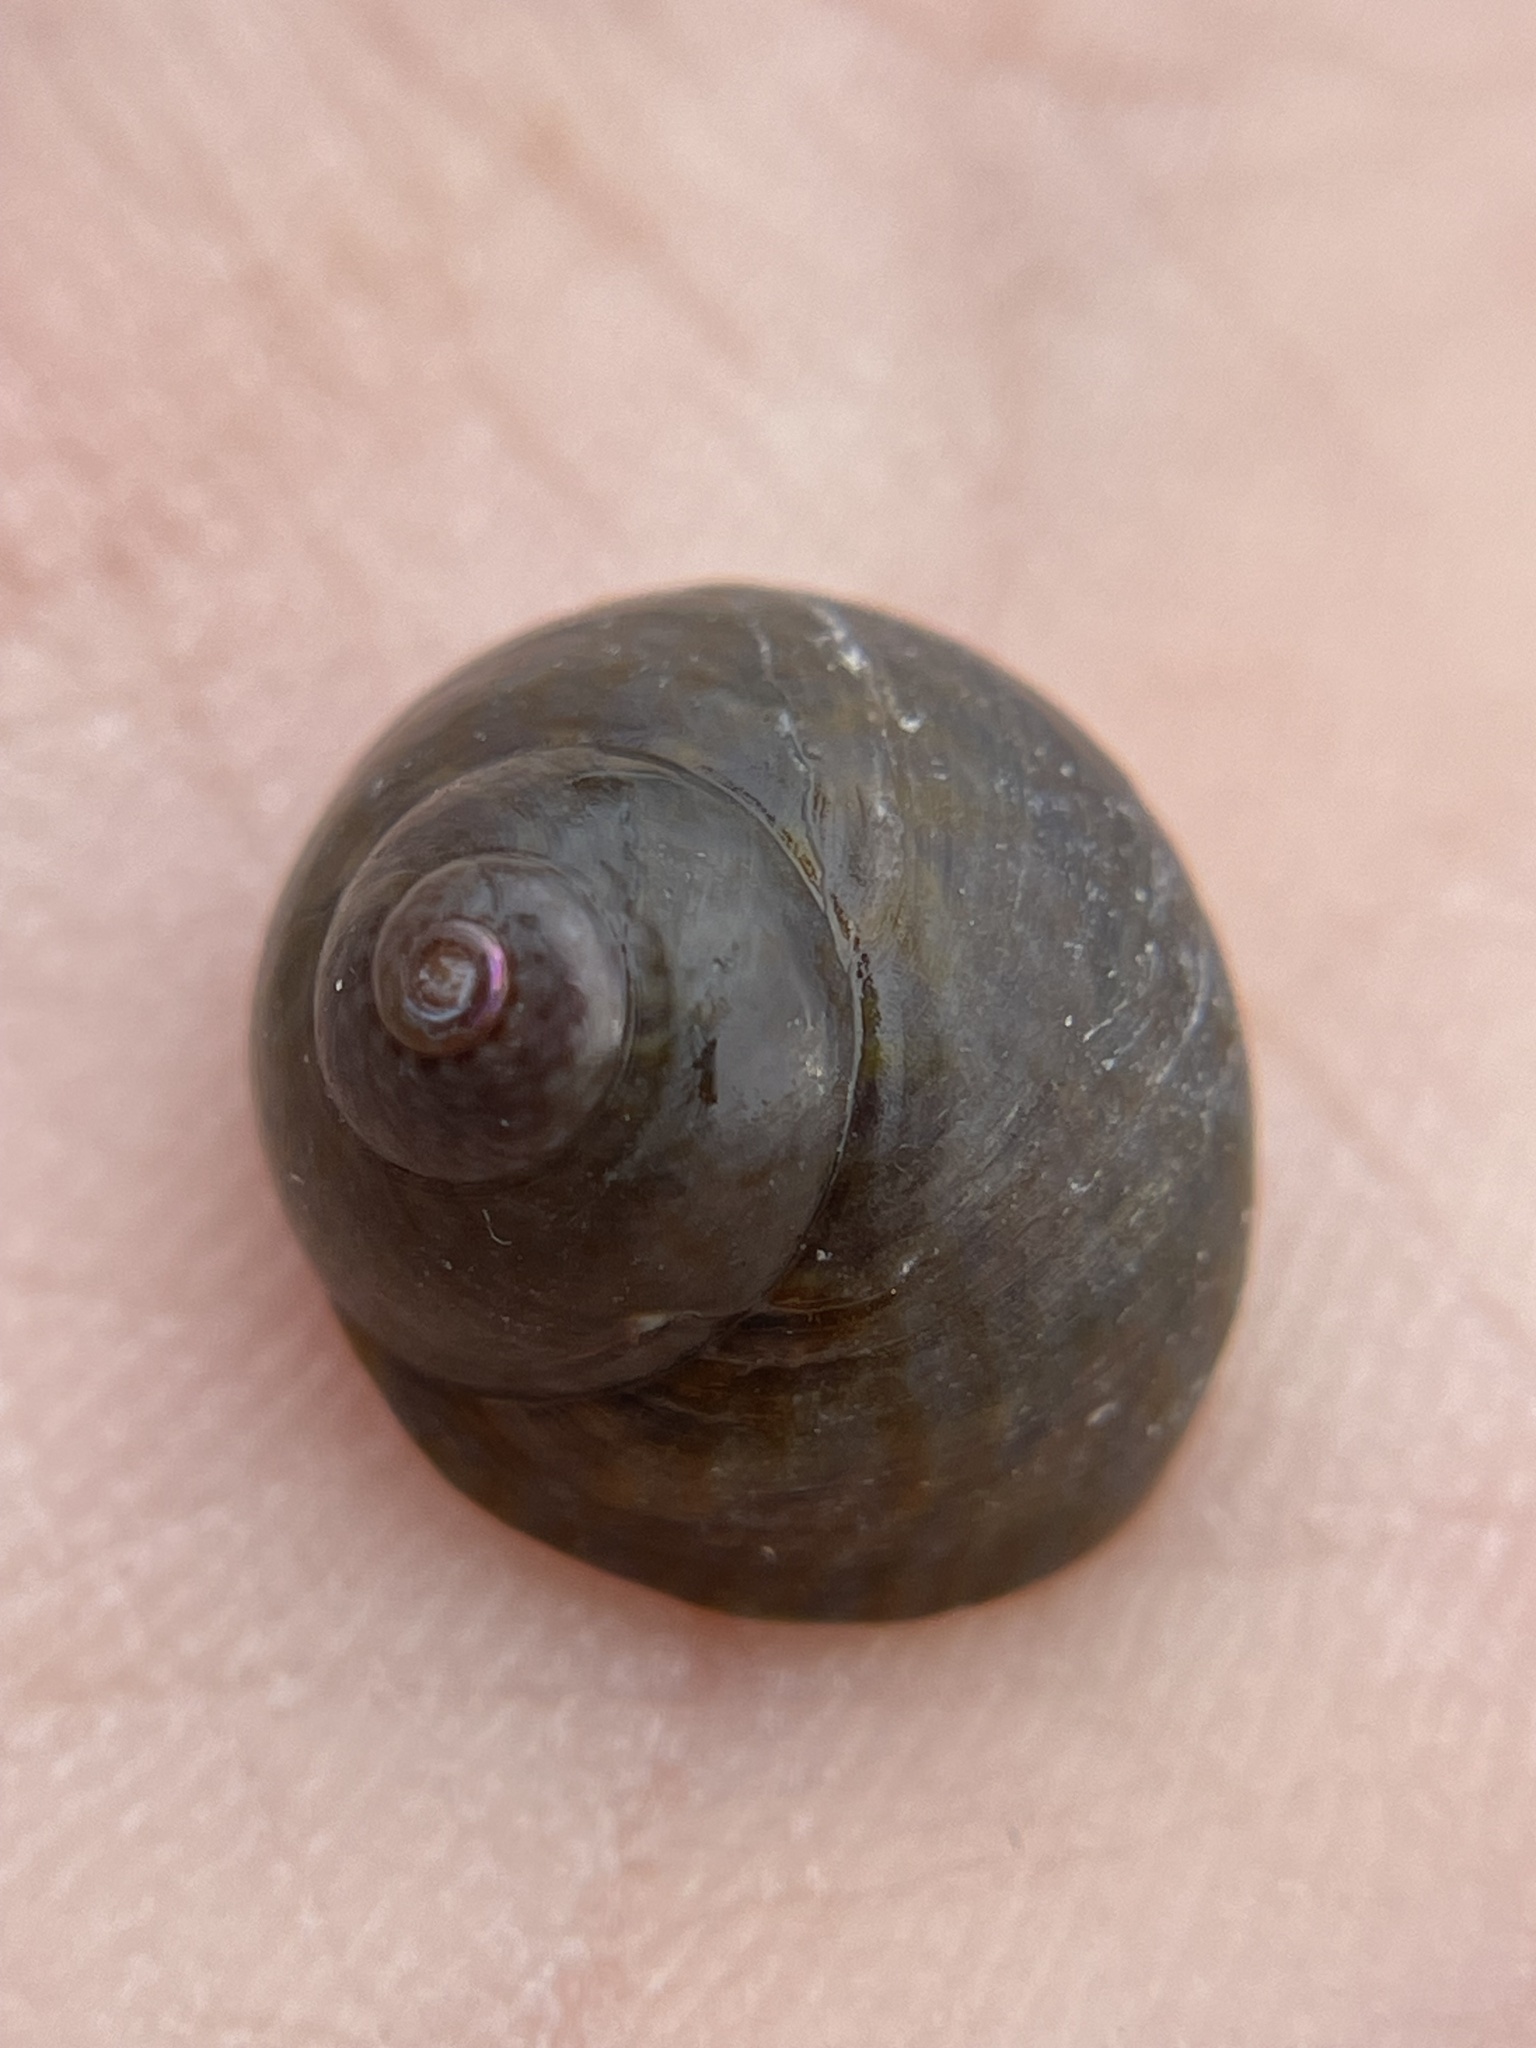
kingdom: Animalia
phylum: Mollusca
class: Gastropoda
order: Trochida
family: Trochidae
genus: Phorcus
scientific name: Phorcus richardi
